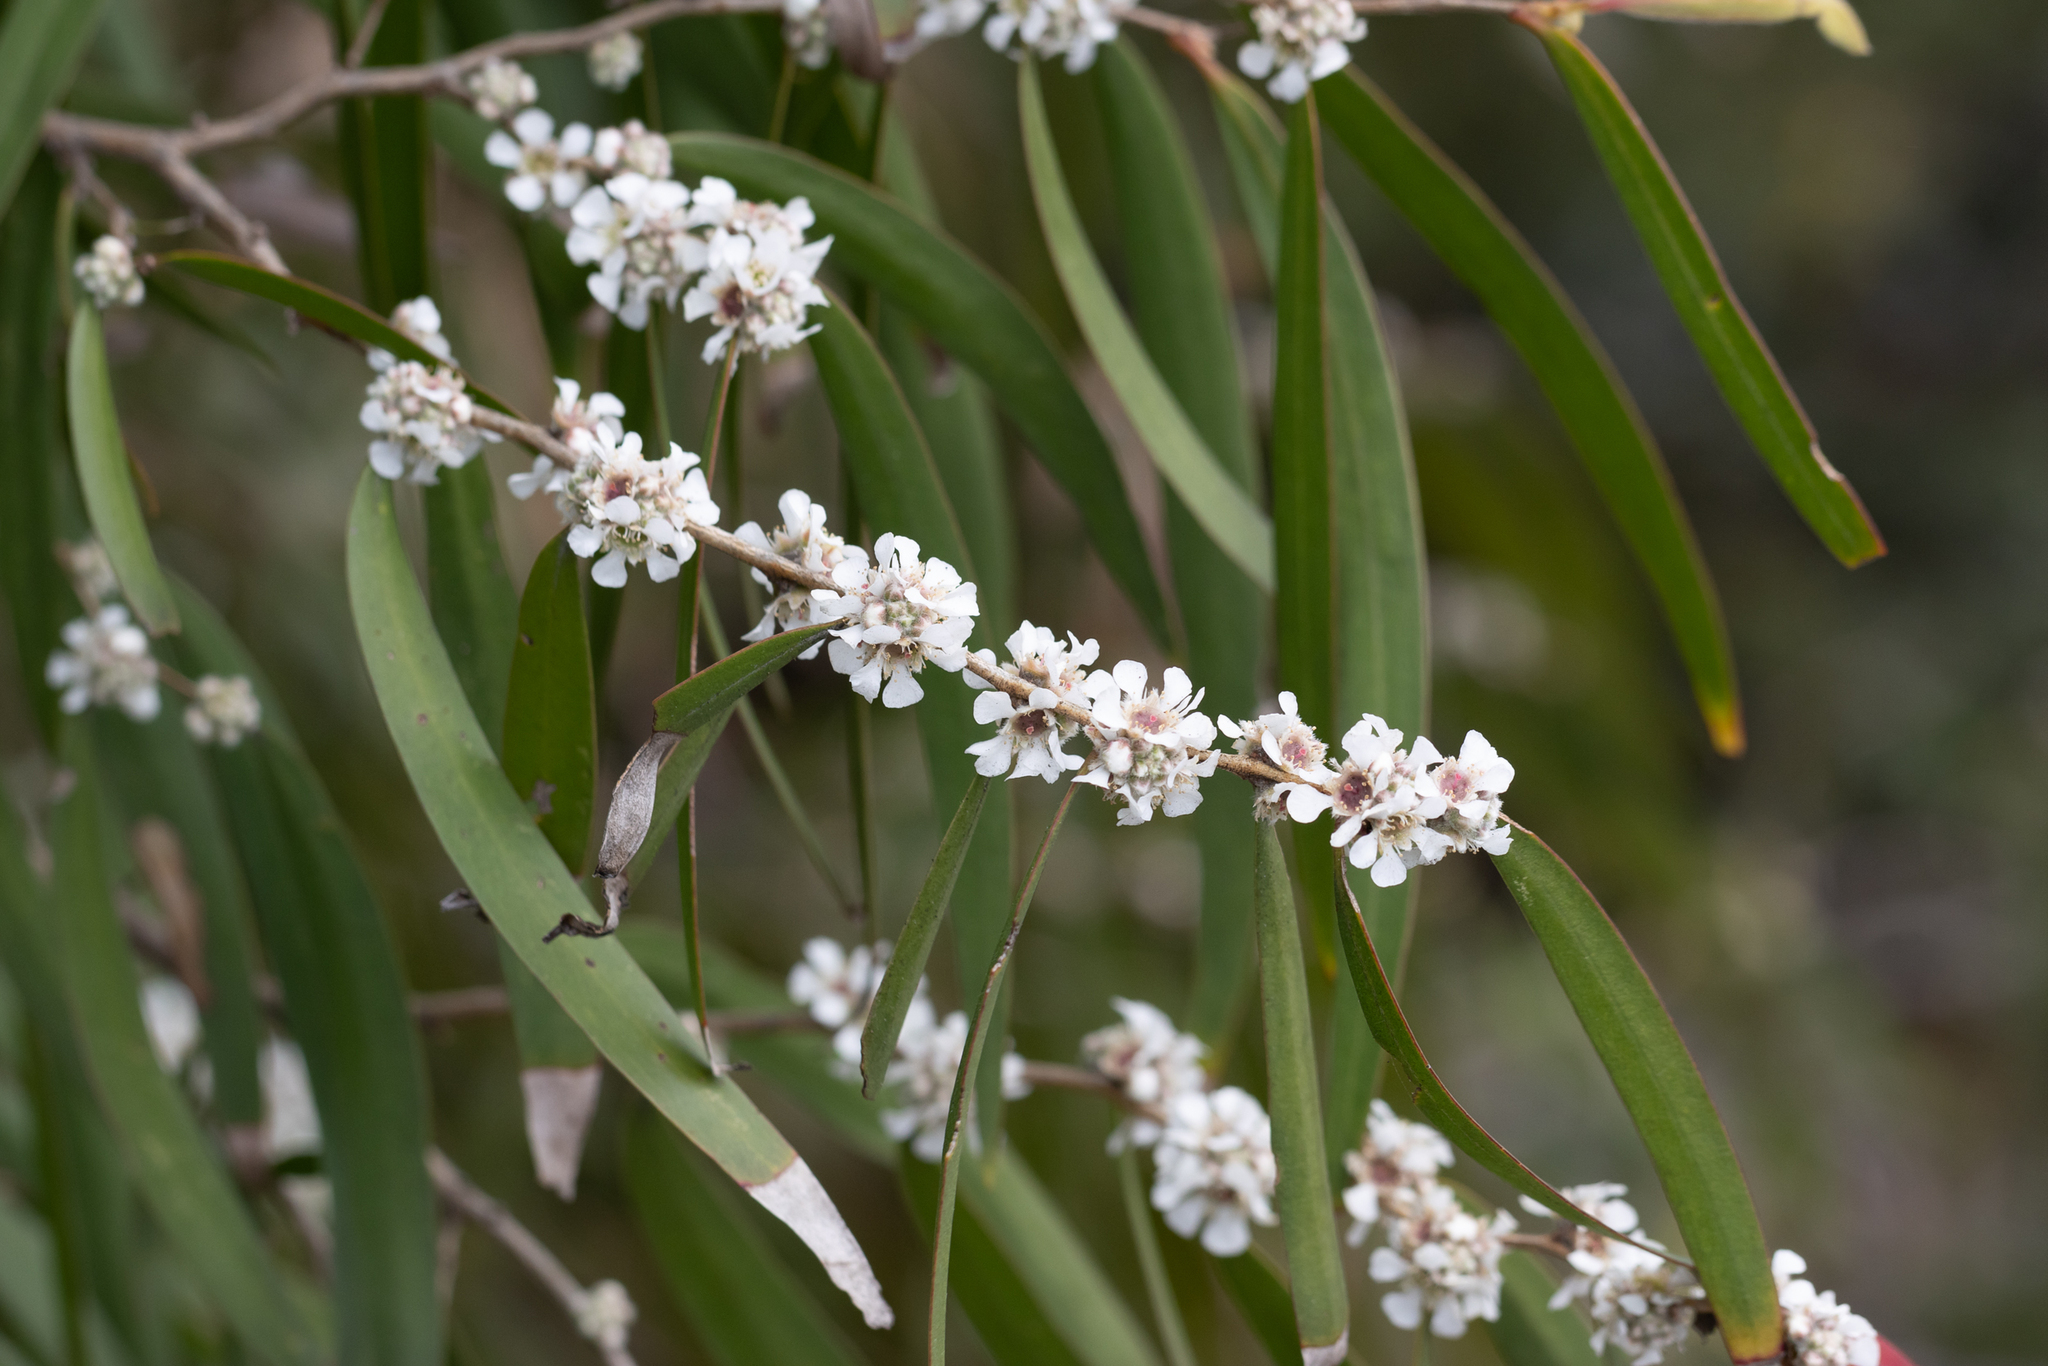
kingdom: Plantae
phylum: Tracheophyta
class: Magnoliopsida
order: Myrtales
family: Myrtaceae
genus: Agonis
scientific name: Agonis flexuosa
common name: Willow myrtle
